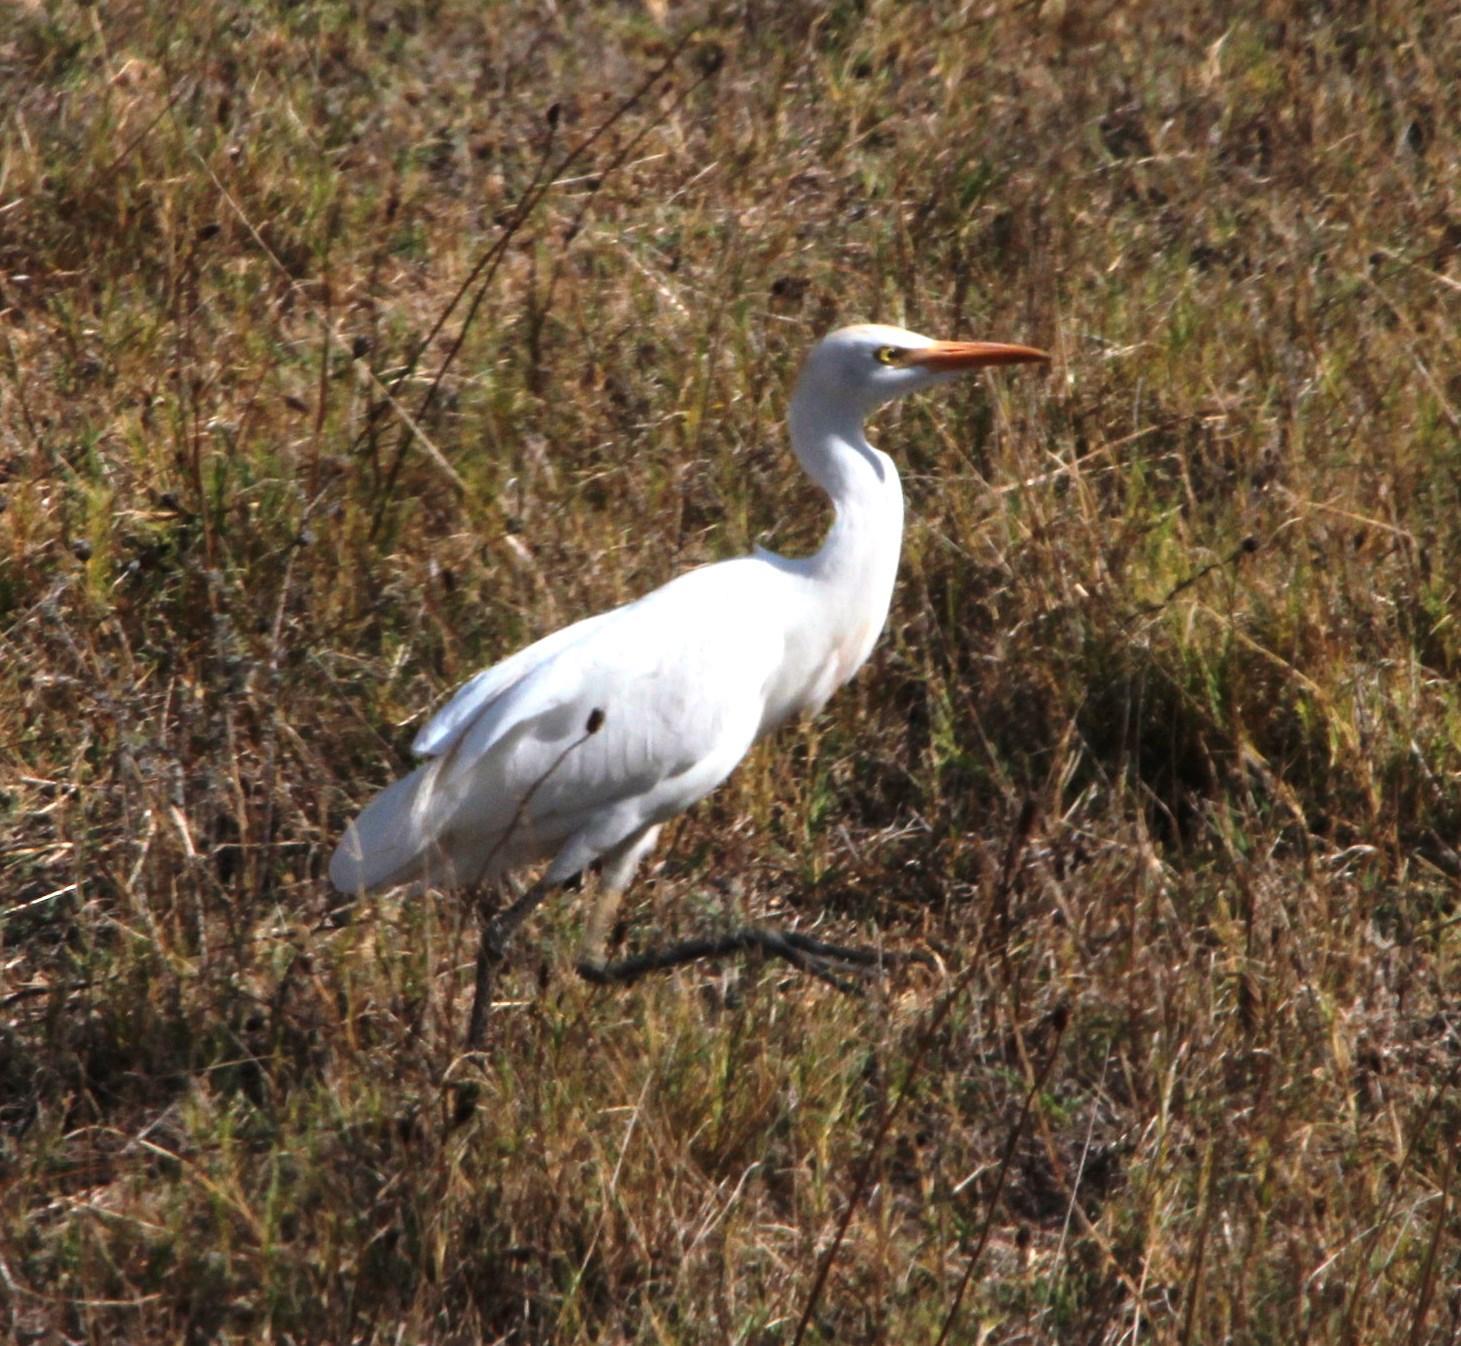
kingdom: Animalia
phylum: Chordata
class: Aves
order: Pelecaniformes
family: Ardeidae
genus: Bubulcus
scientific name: Bubulcus ibis
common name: Cattle egret
